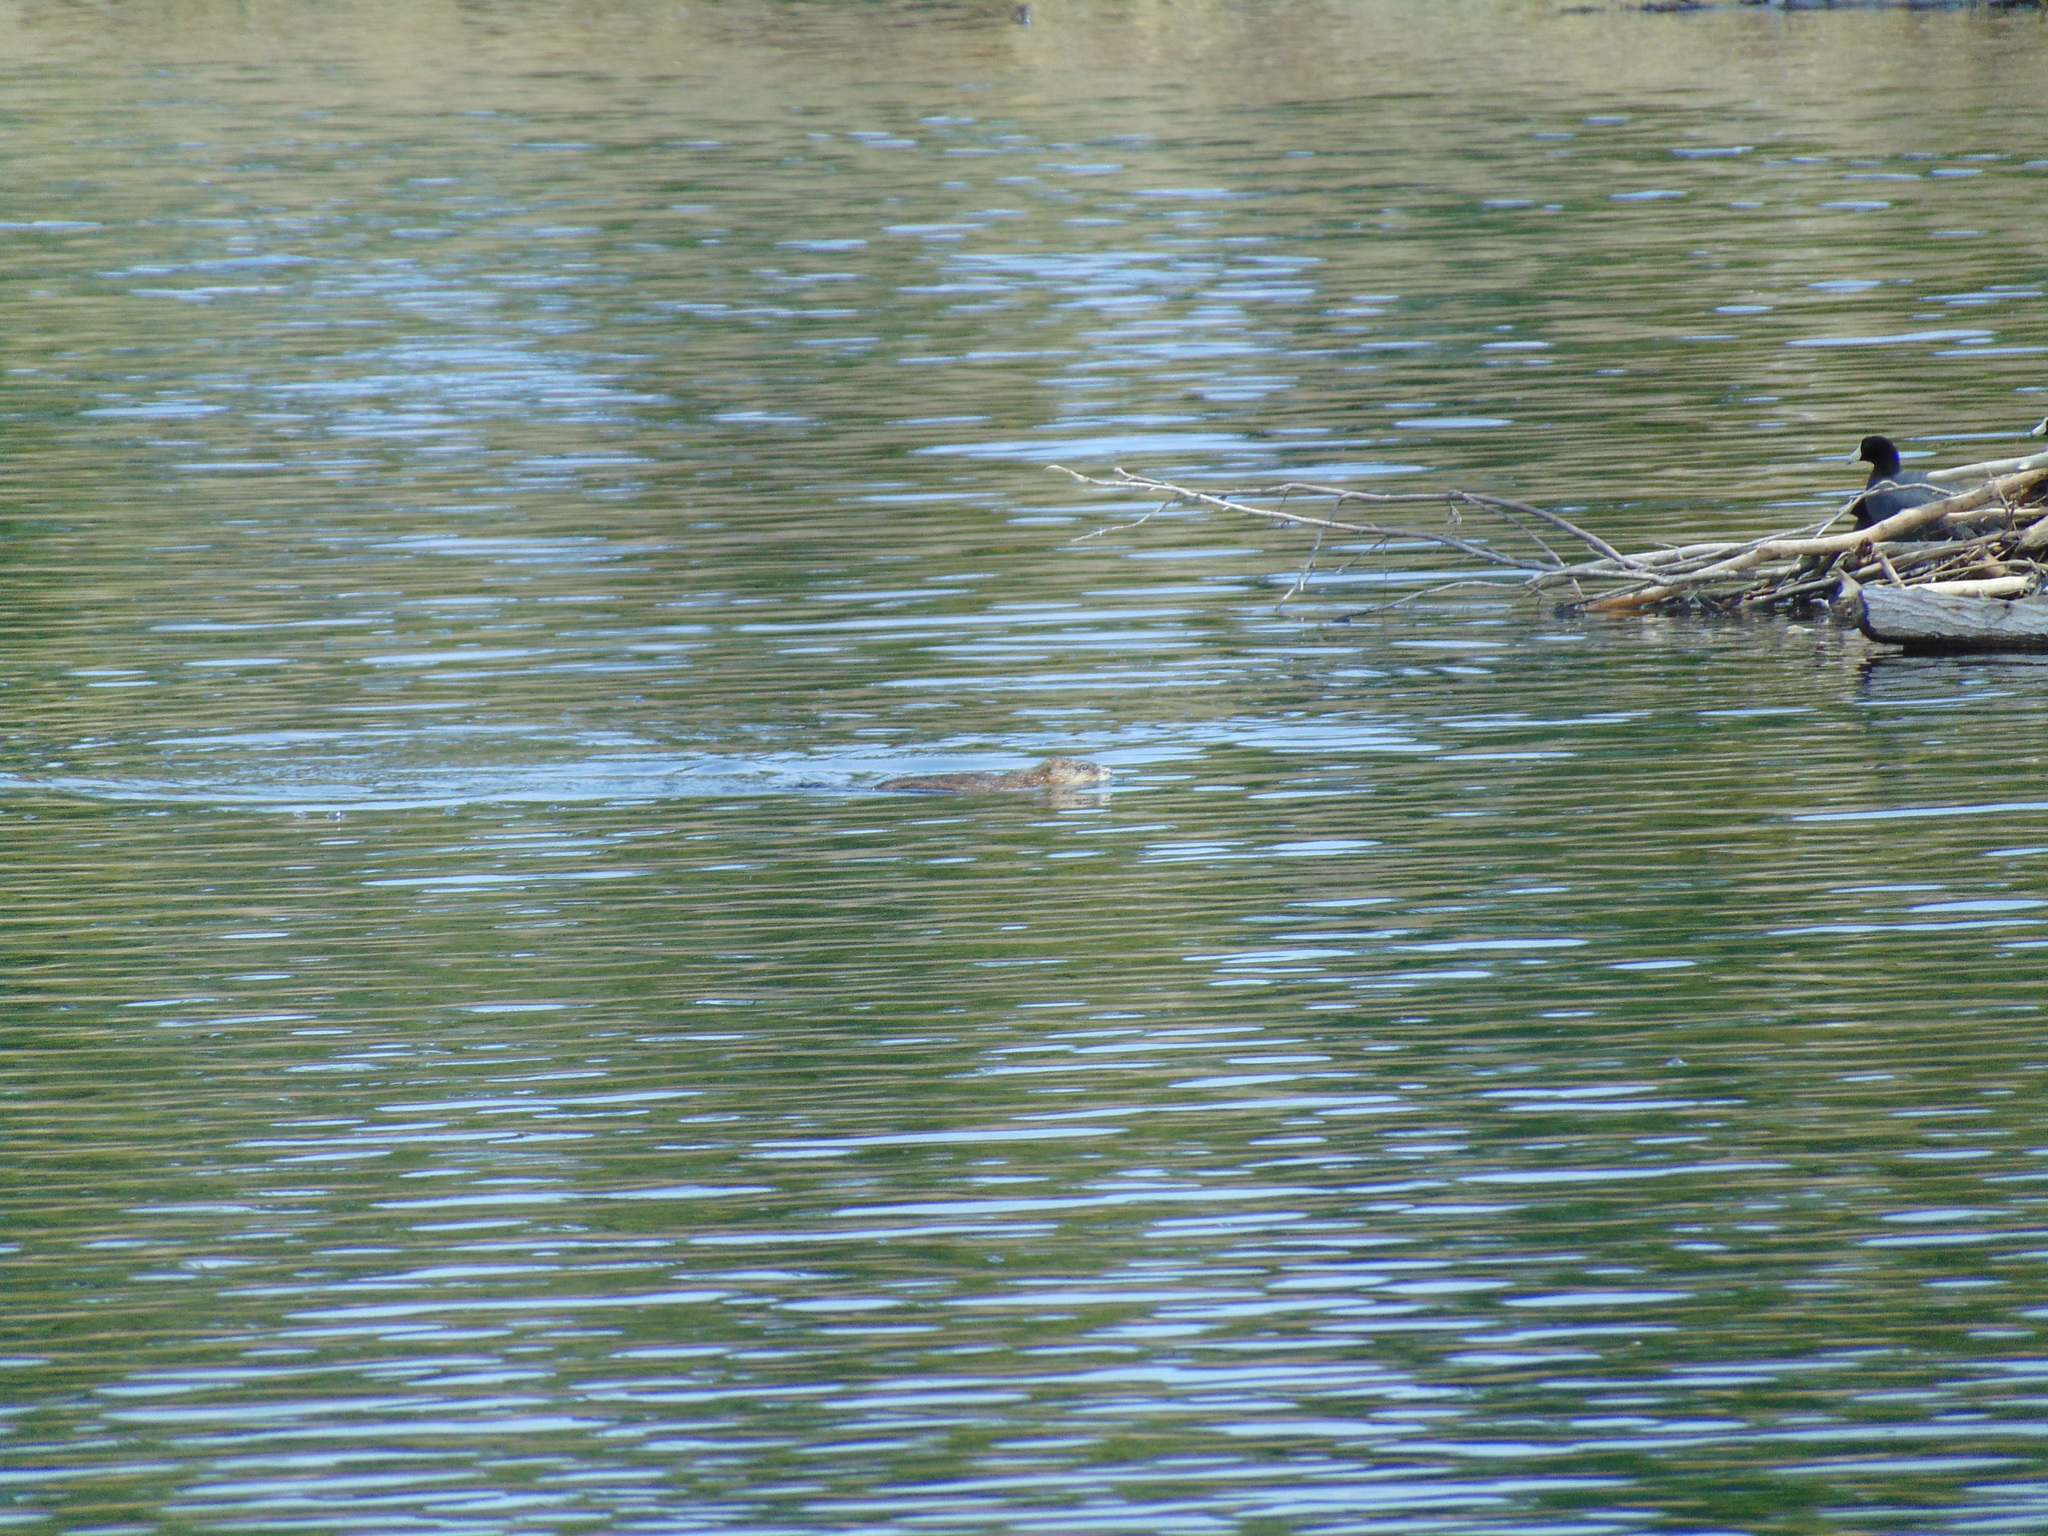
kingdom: Animalia
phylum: Chordata
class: Mammalia
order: Rodentia
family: Cricetidae
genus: Ondatra
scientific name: Ondatra zibethicus
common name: Muskrat
